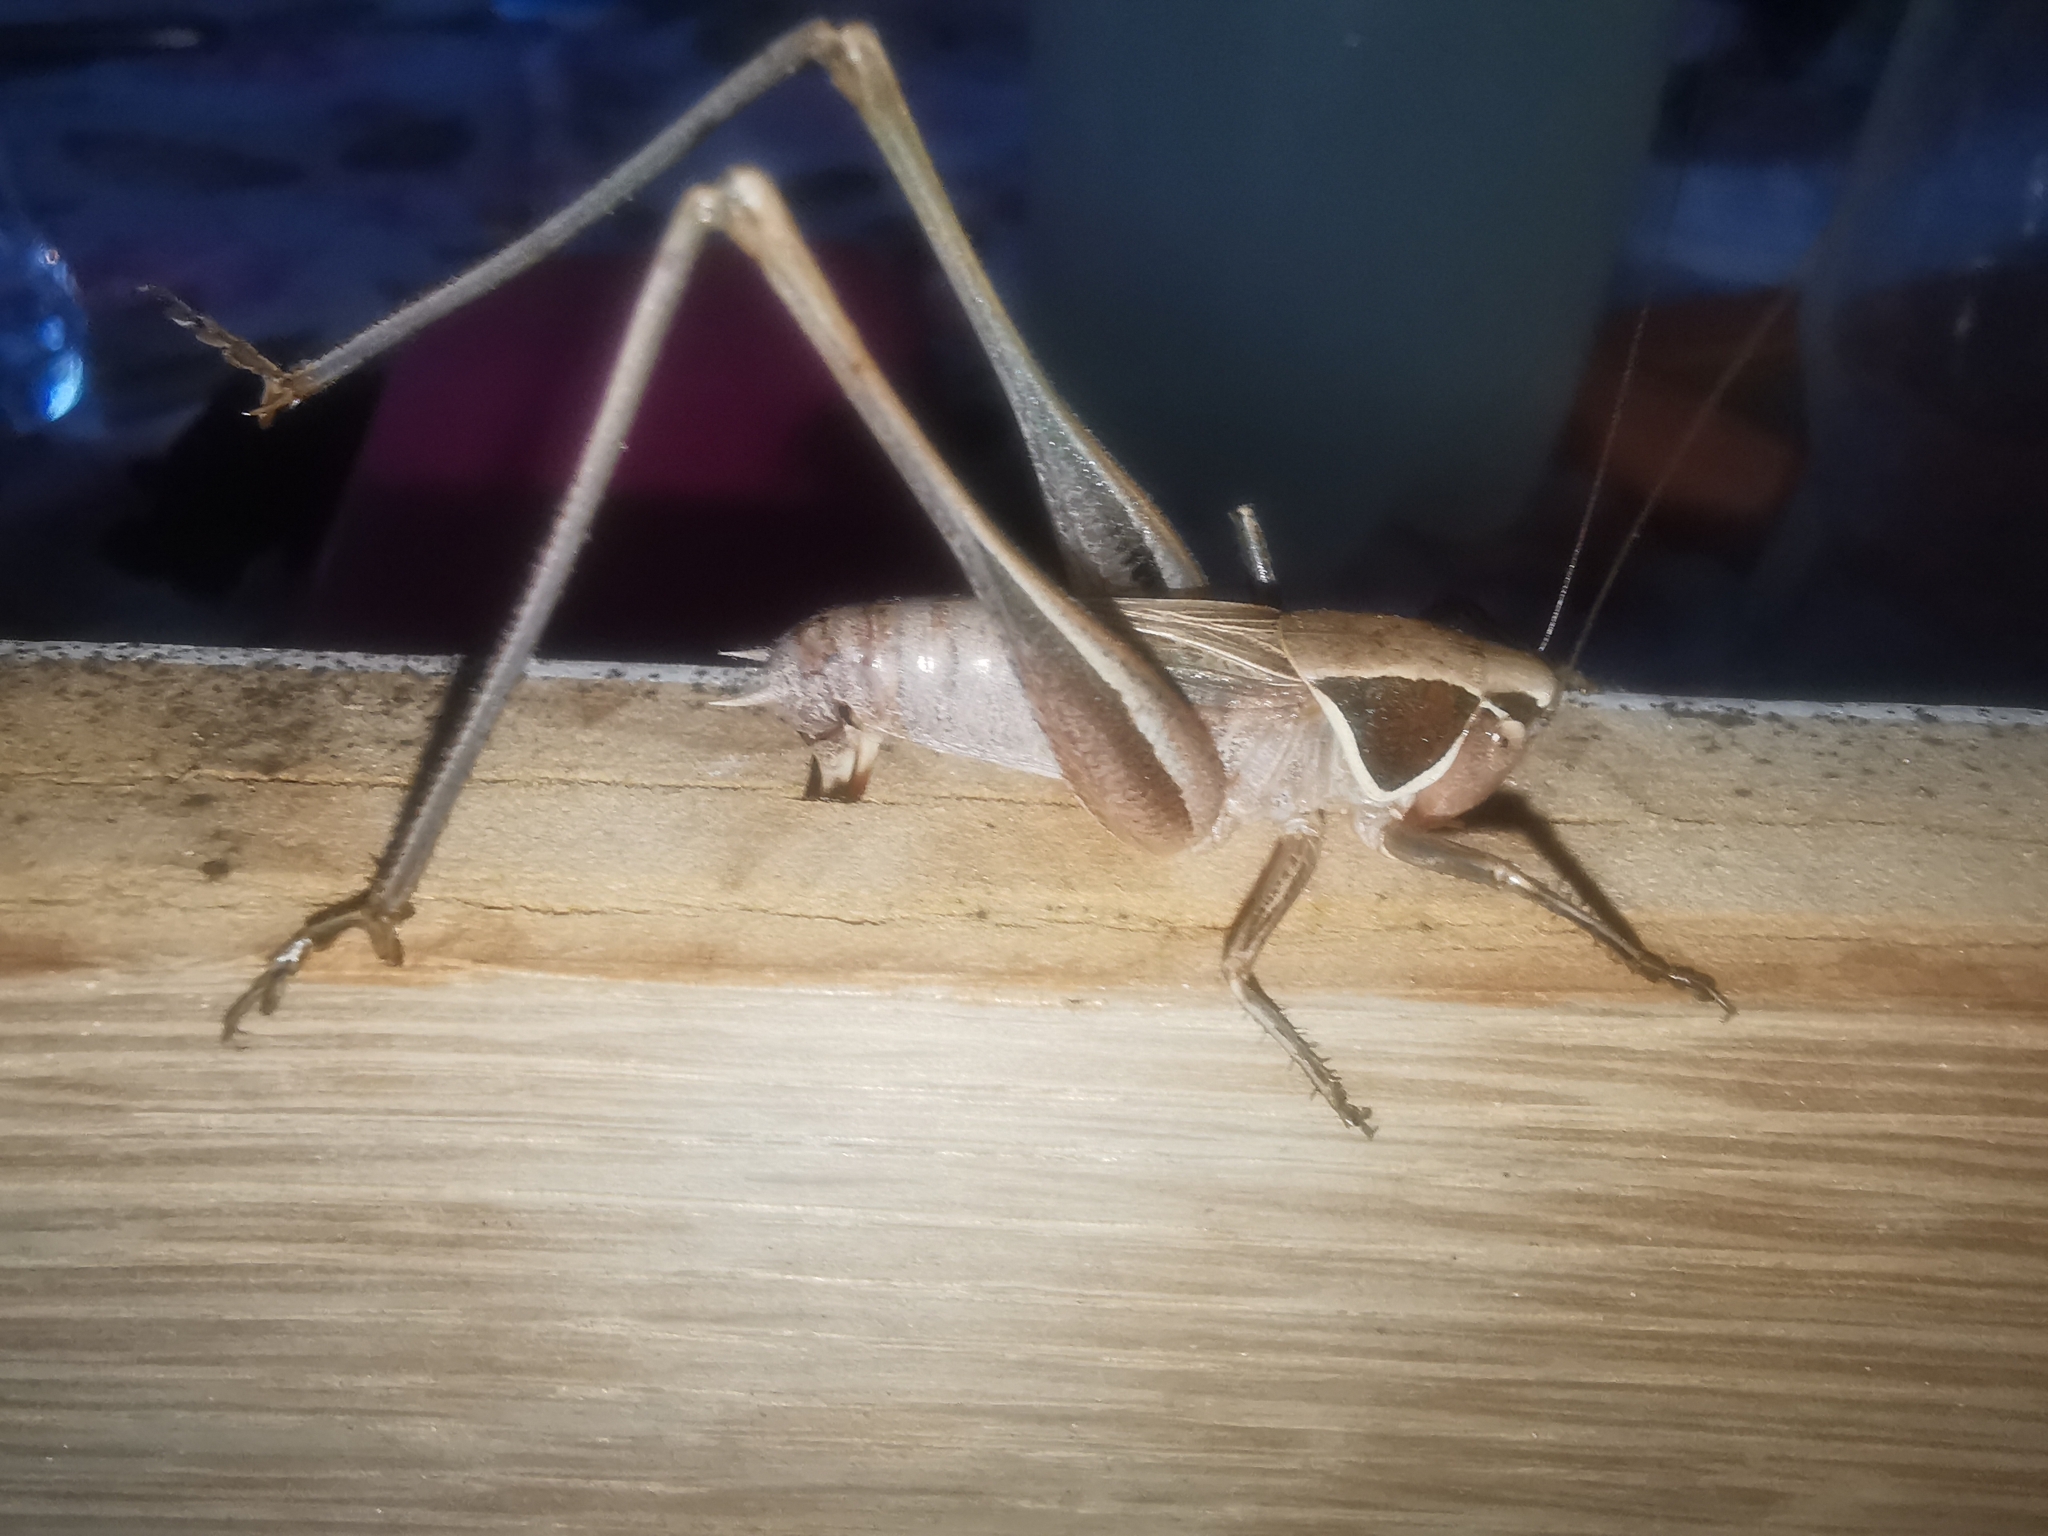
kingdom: Animalia
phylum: Arthropoda
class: Insecta
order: Orthoptera
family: Tettigoniidae
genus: Sepiana
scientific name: Sepiana sepium
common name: Sepia bush-cricket
